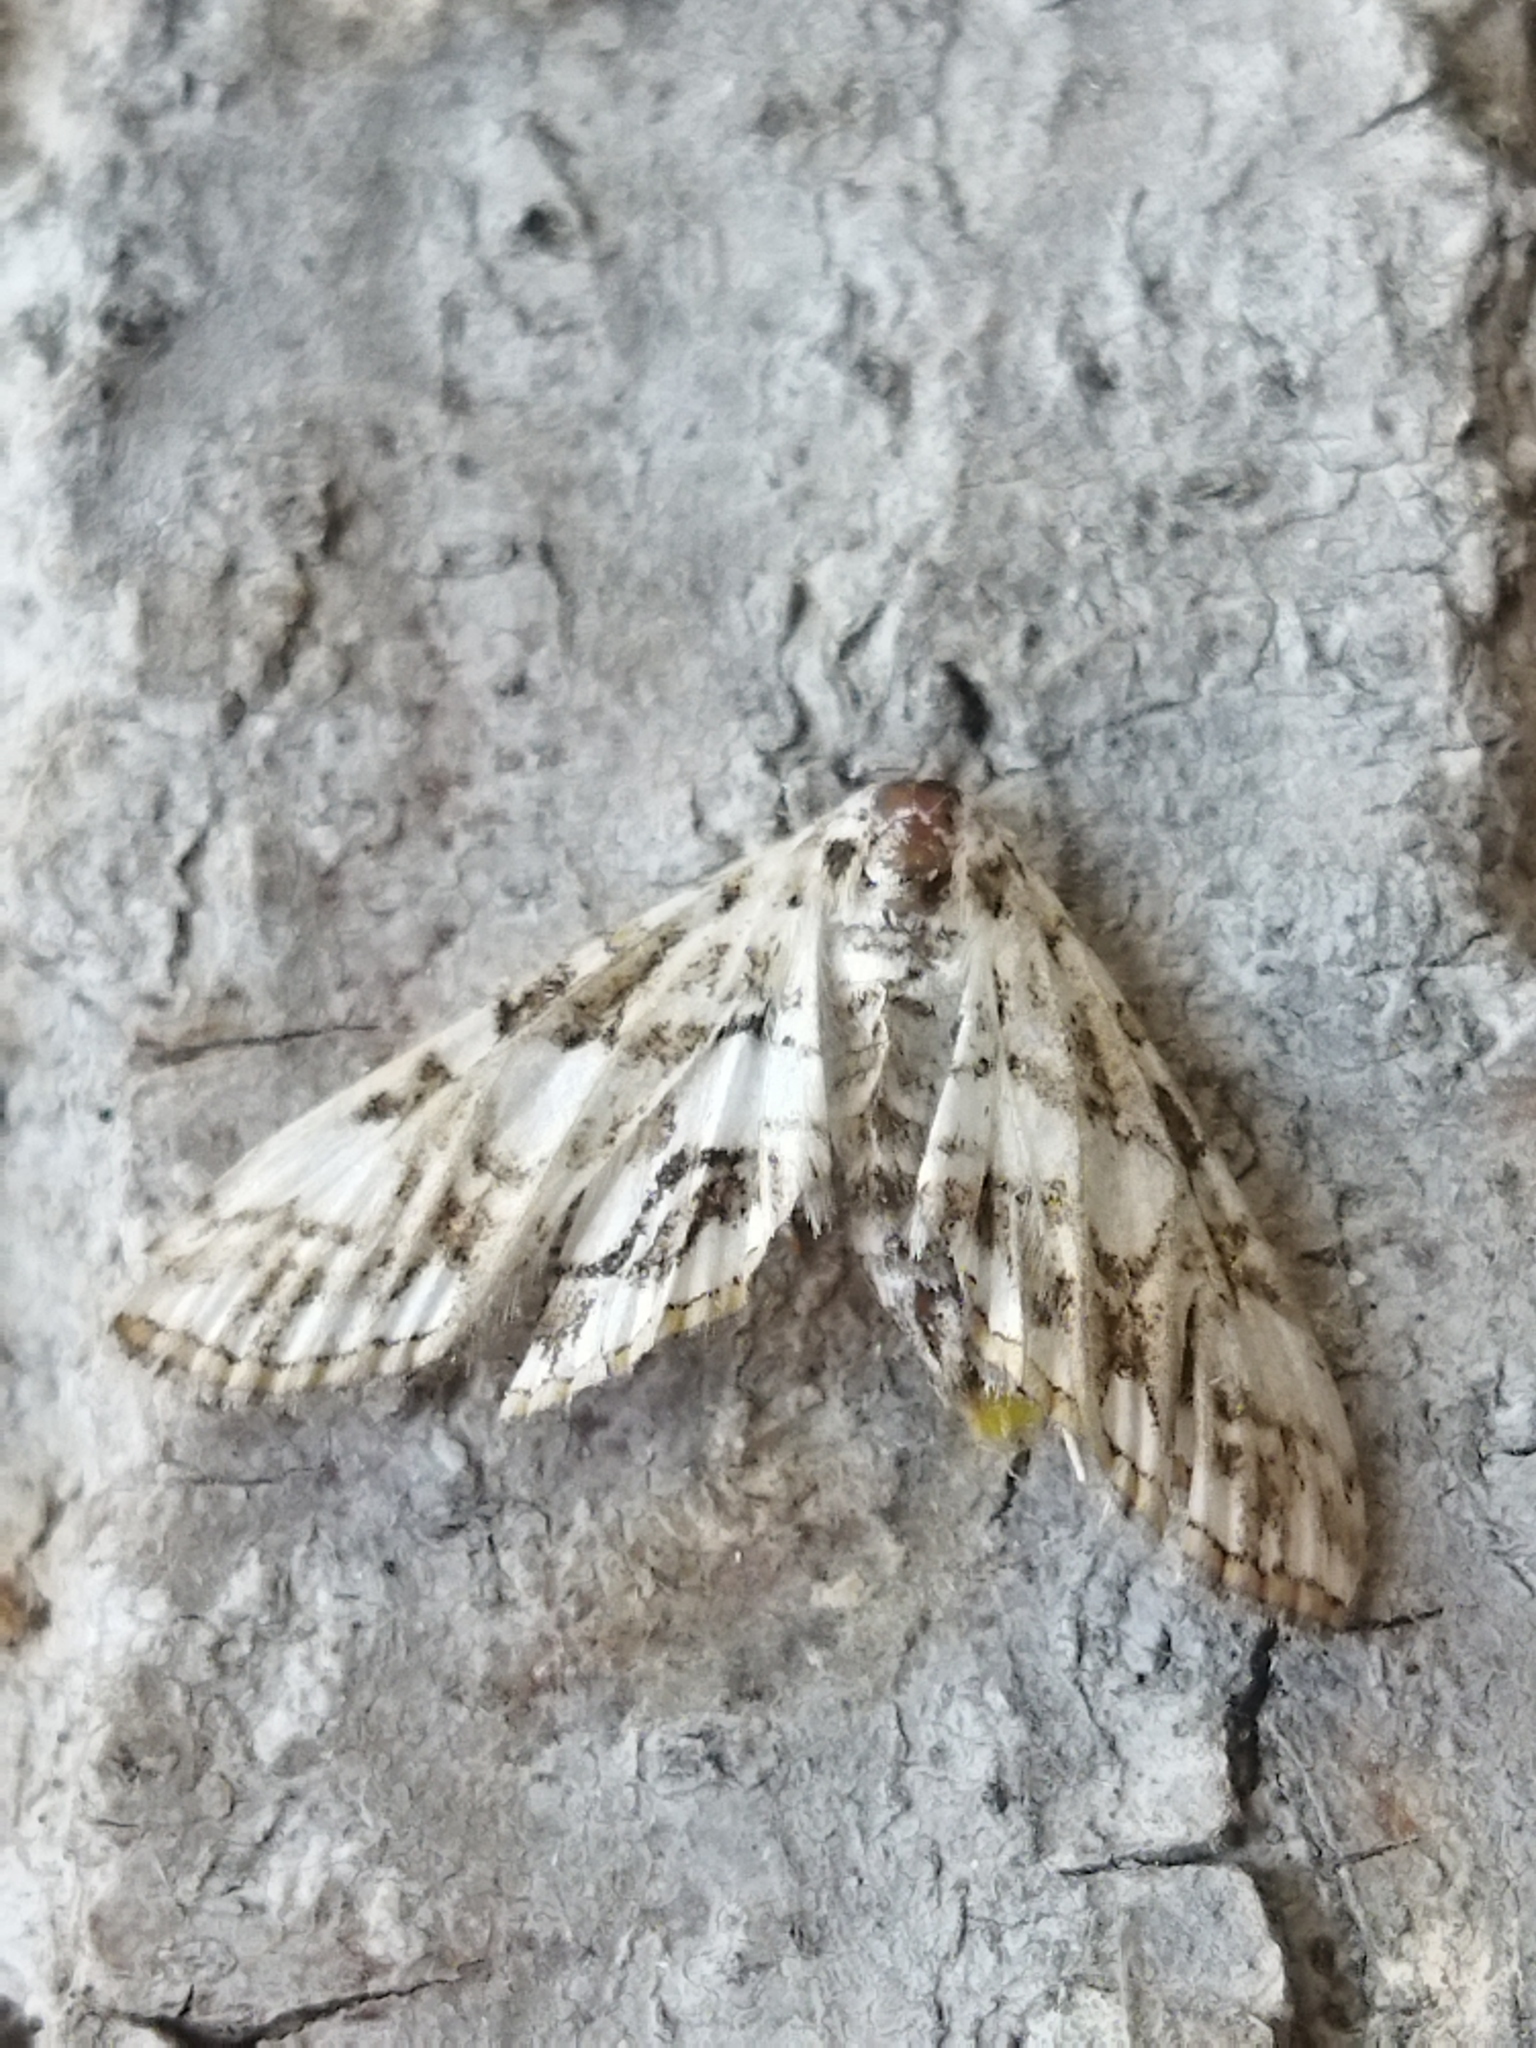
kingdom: Animalia
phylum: Arthropoda
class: Insecta
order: Lepidoptera
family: Crambidae
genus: Elophila
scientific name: Elophila nymphaeata
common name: Brown china-mark
